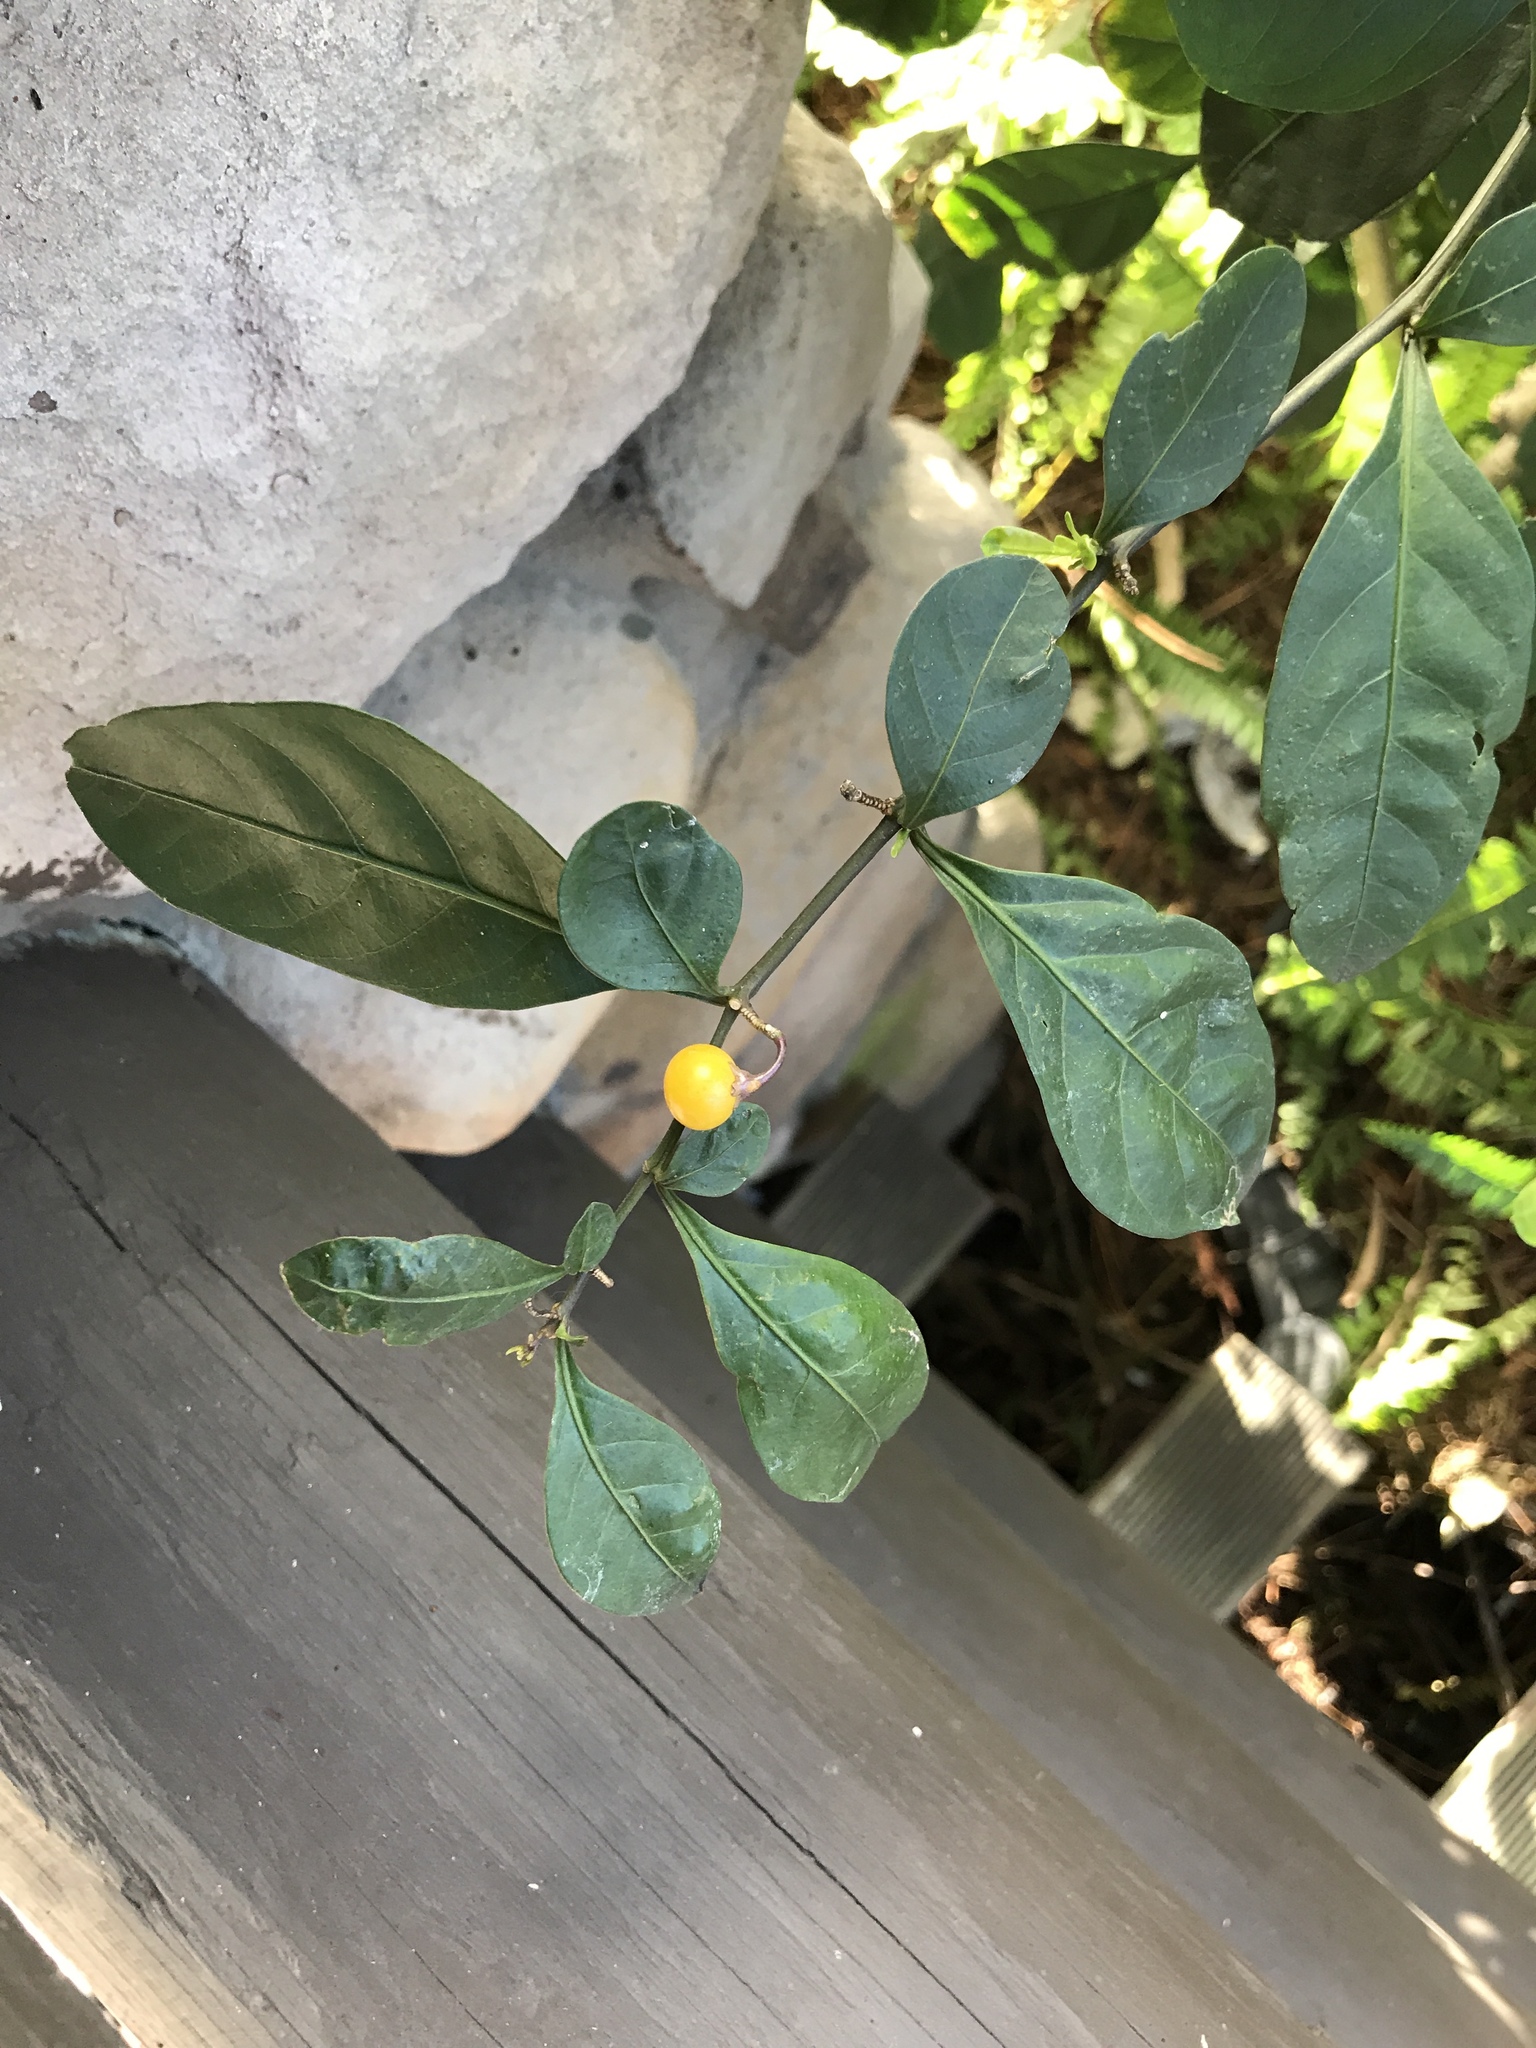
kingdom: Plantae
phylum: Tracheophyta
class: Magnoliopsida
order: Solanales
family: Solanaceae
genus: Solanum
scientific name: Solanum diphyllum
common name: Twoleaf nightshade
